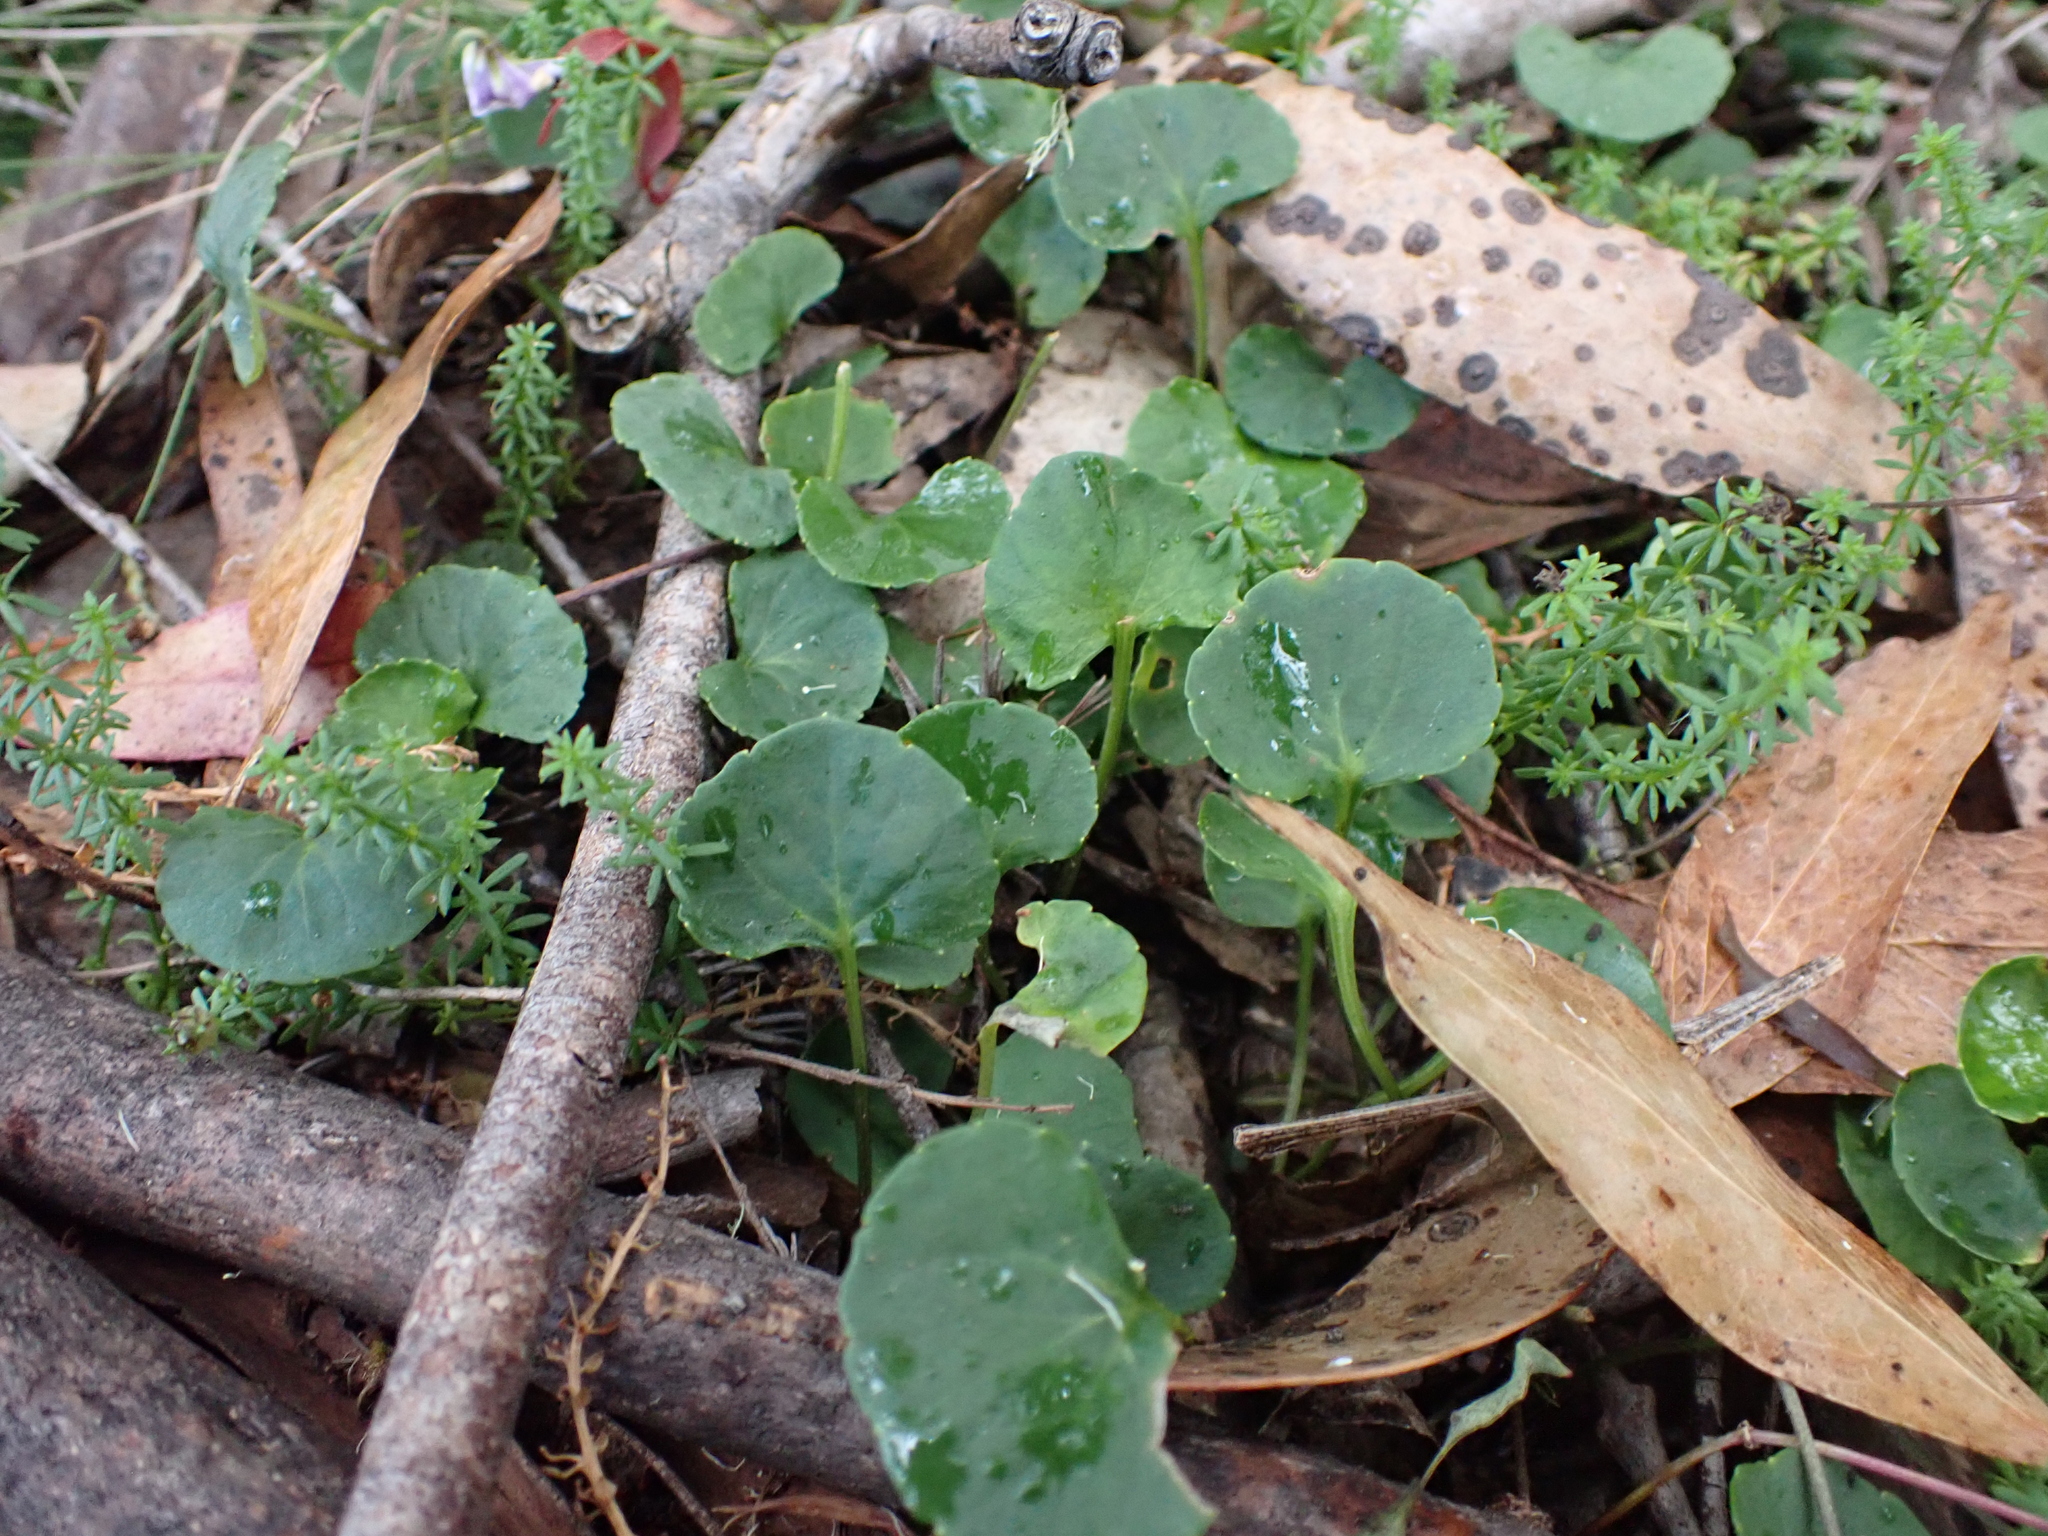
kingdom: Plantae
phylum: Tracheophyta
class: Magnoliopsida
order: Malpighiales
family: Violaceae
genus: Viola
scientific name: Viola hederacea
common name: Australian violet
